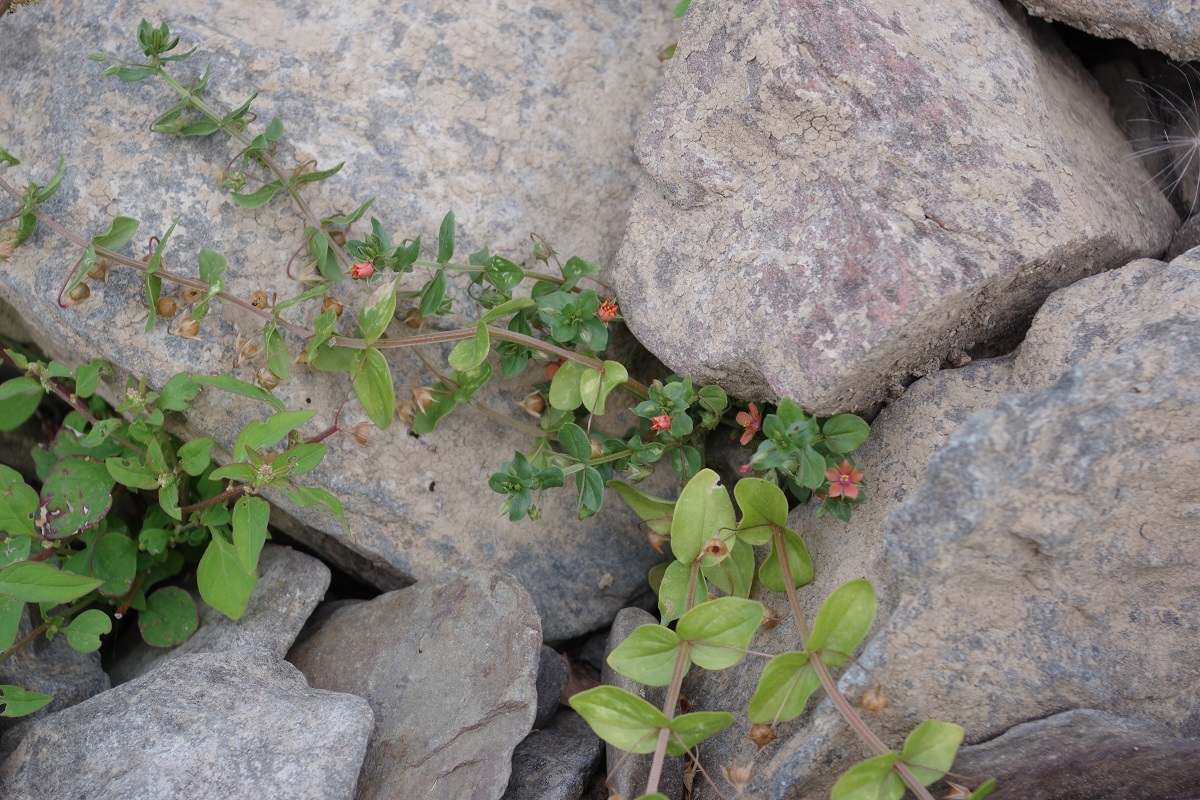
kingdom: Plantae
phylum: Tracheophyta
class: Magnoliopsida
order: Ericales
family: Primulaceae
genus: Lysimachia
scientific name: Lysimachia arvensis
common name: Scarlet pimpernel
